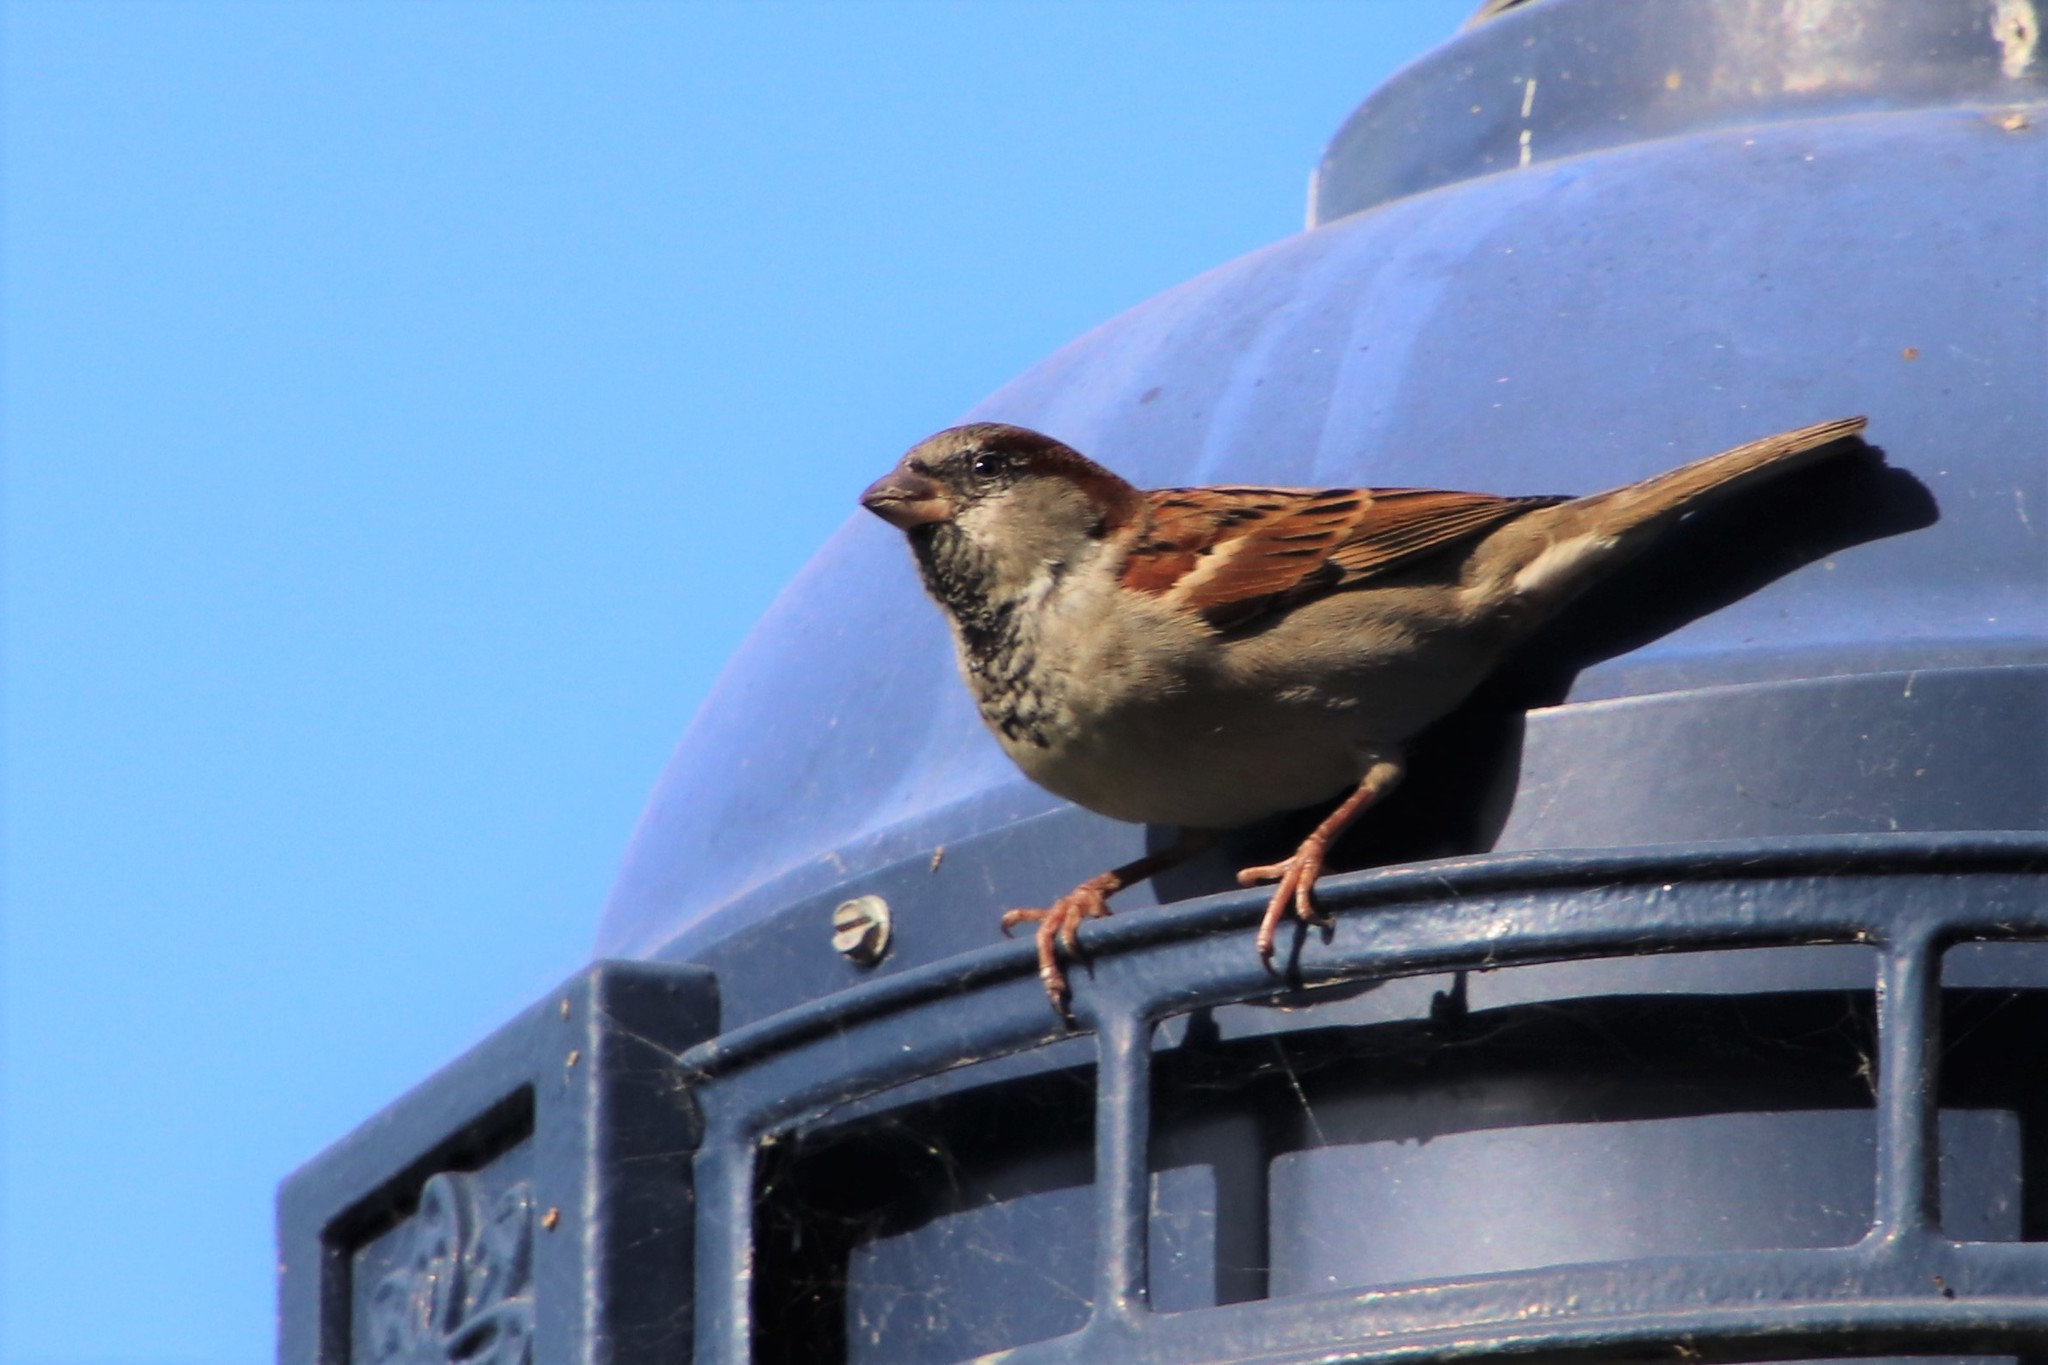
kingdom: Animalia
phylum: Chordata
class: Aves
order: Passeriformes
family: Passeridae
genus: Passer
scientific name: Passer domesticus
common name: House sparrow
